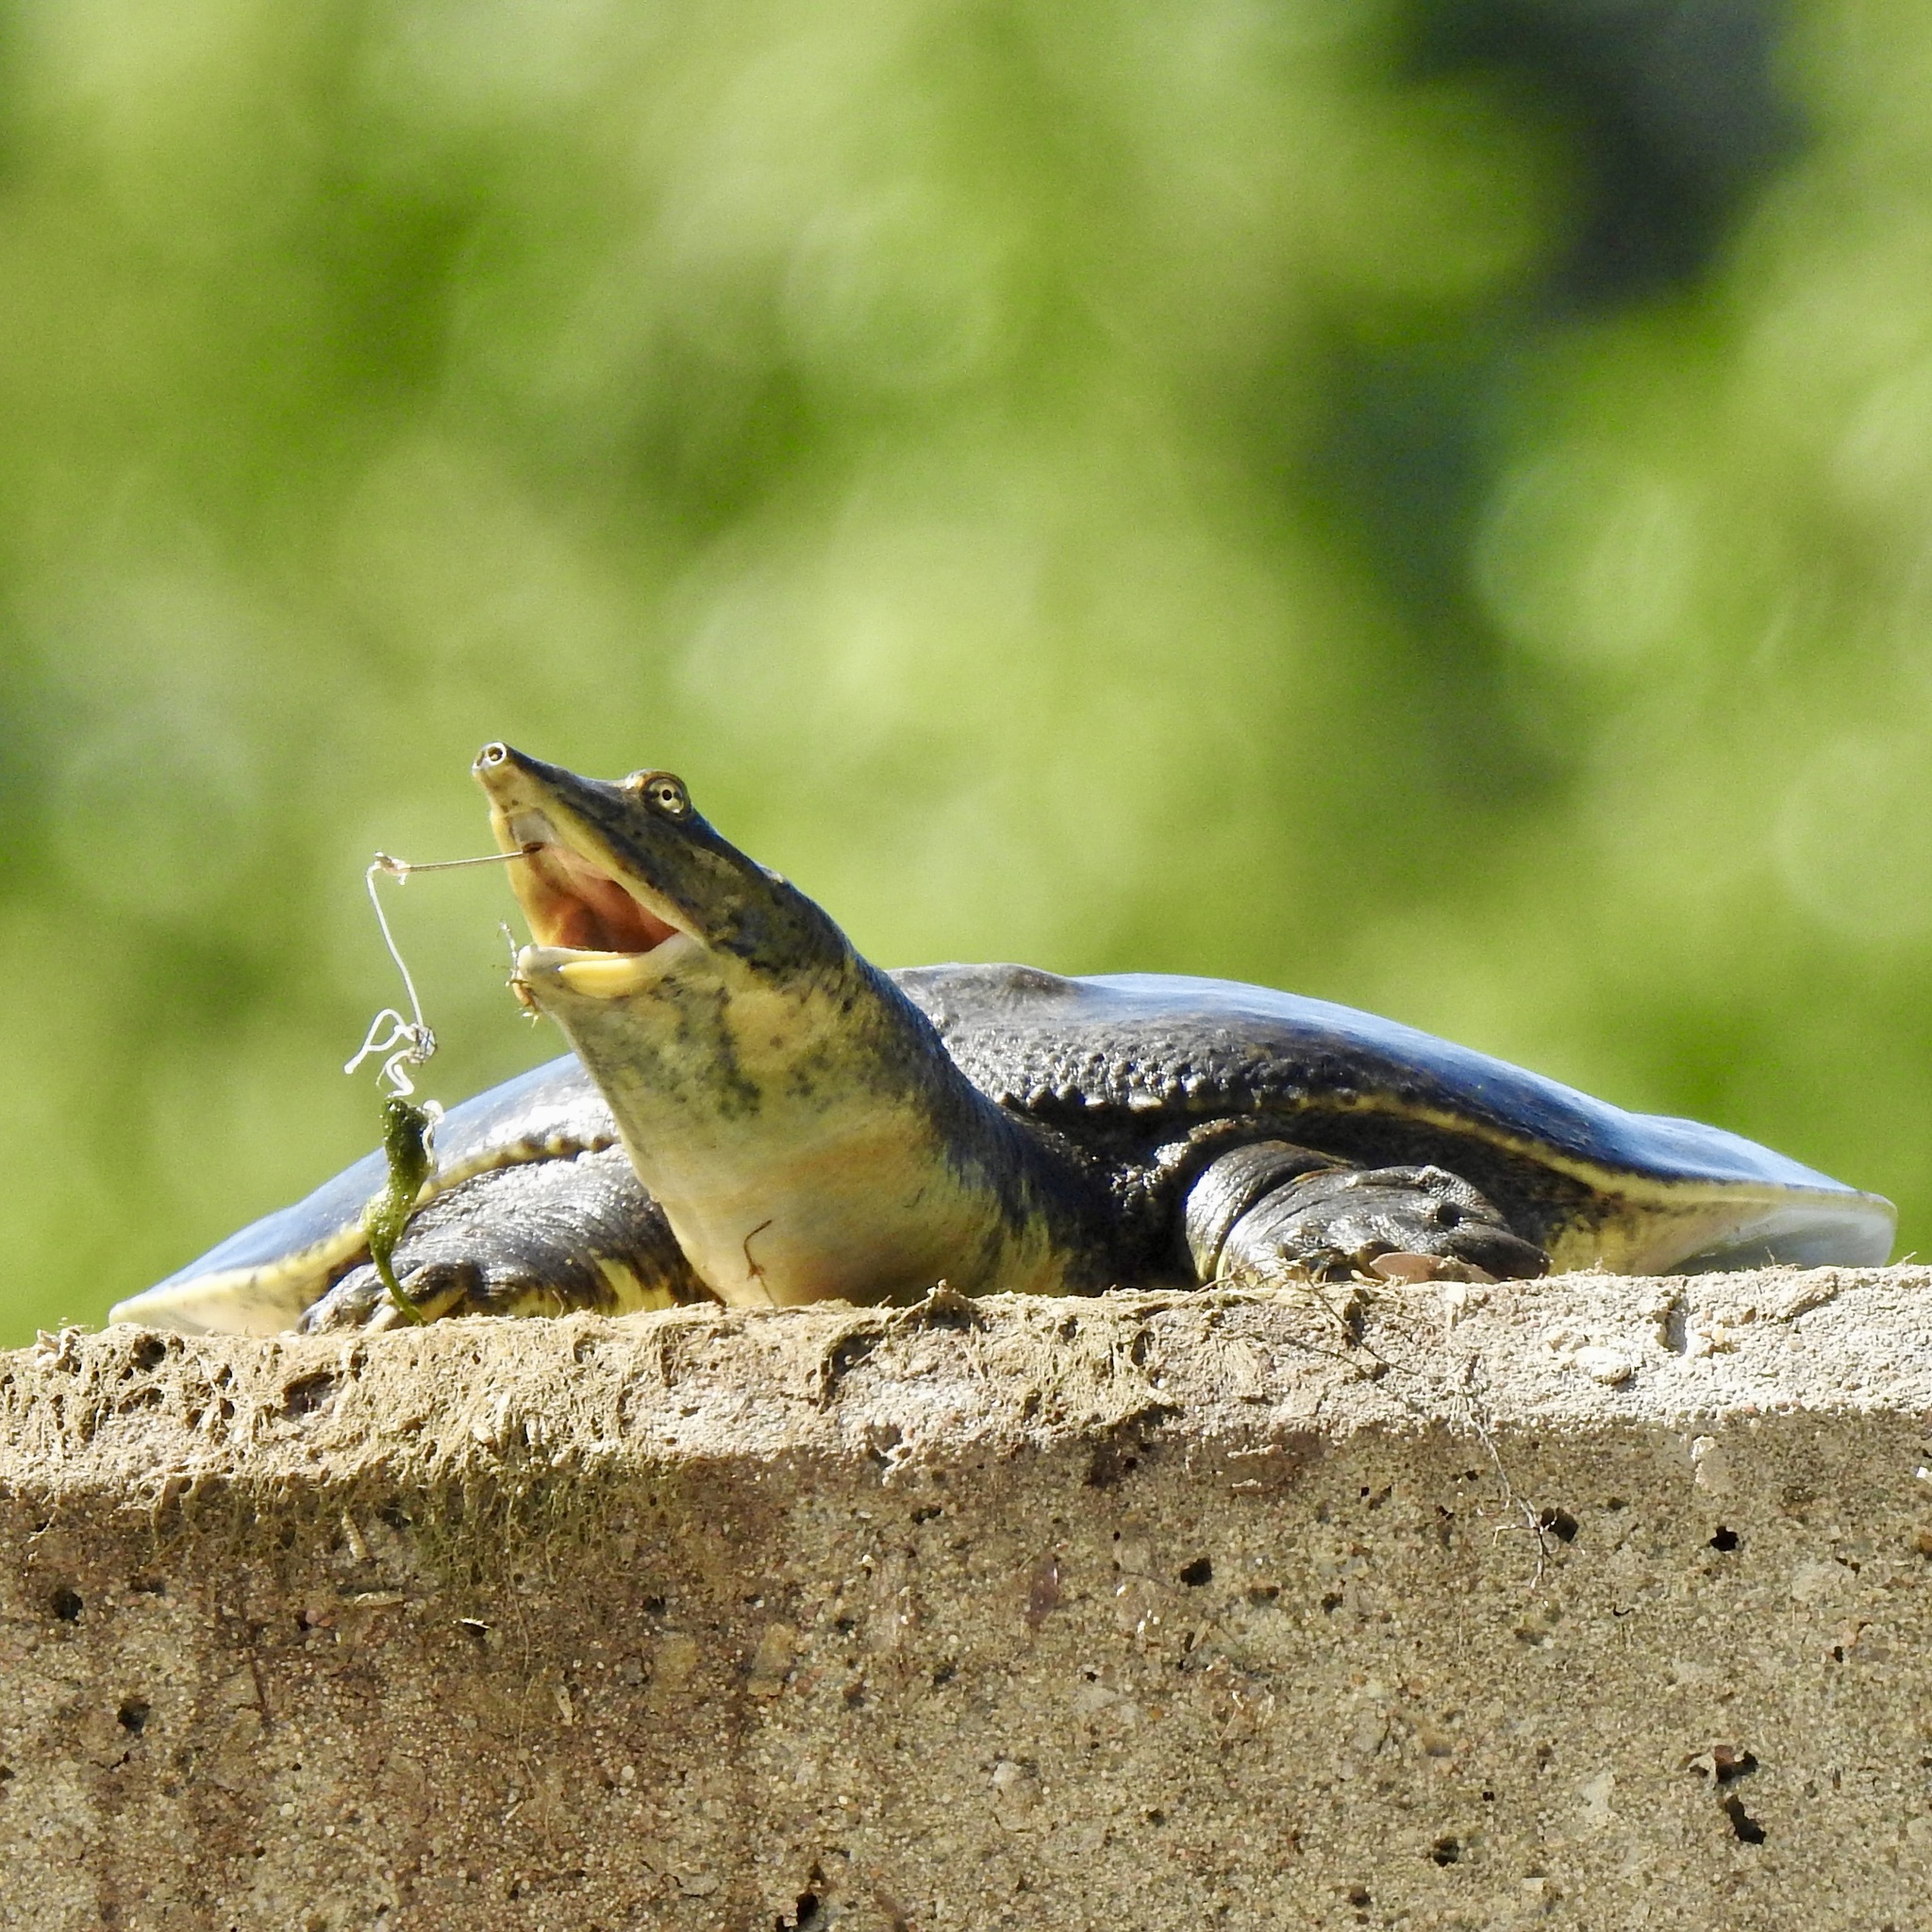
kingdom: Animalia
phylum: Chordata
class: Testudines
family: Trionychidae
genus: Apalone
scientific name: Apalone spinifera
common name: Spiny softshell turtle
